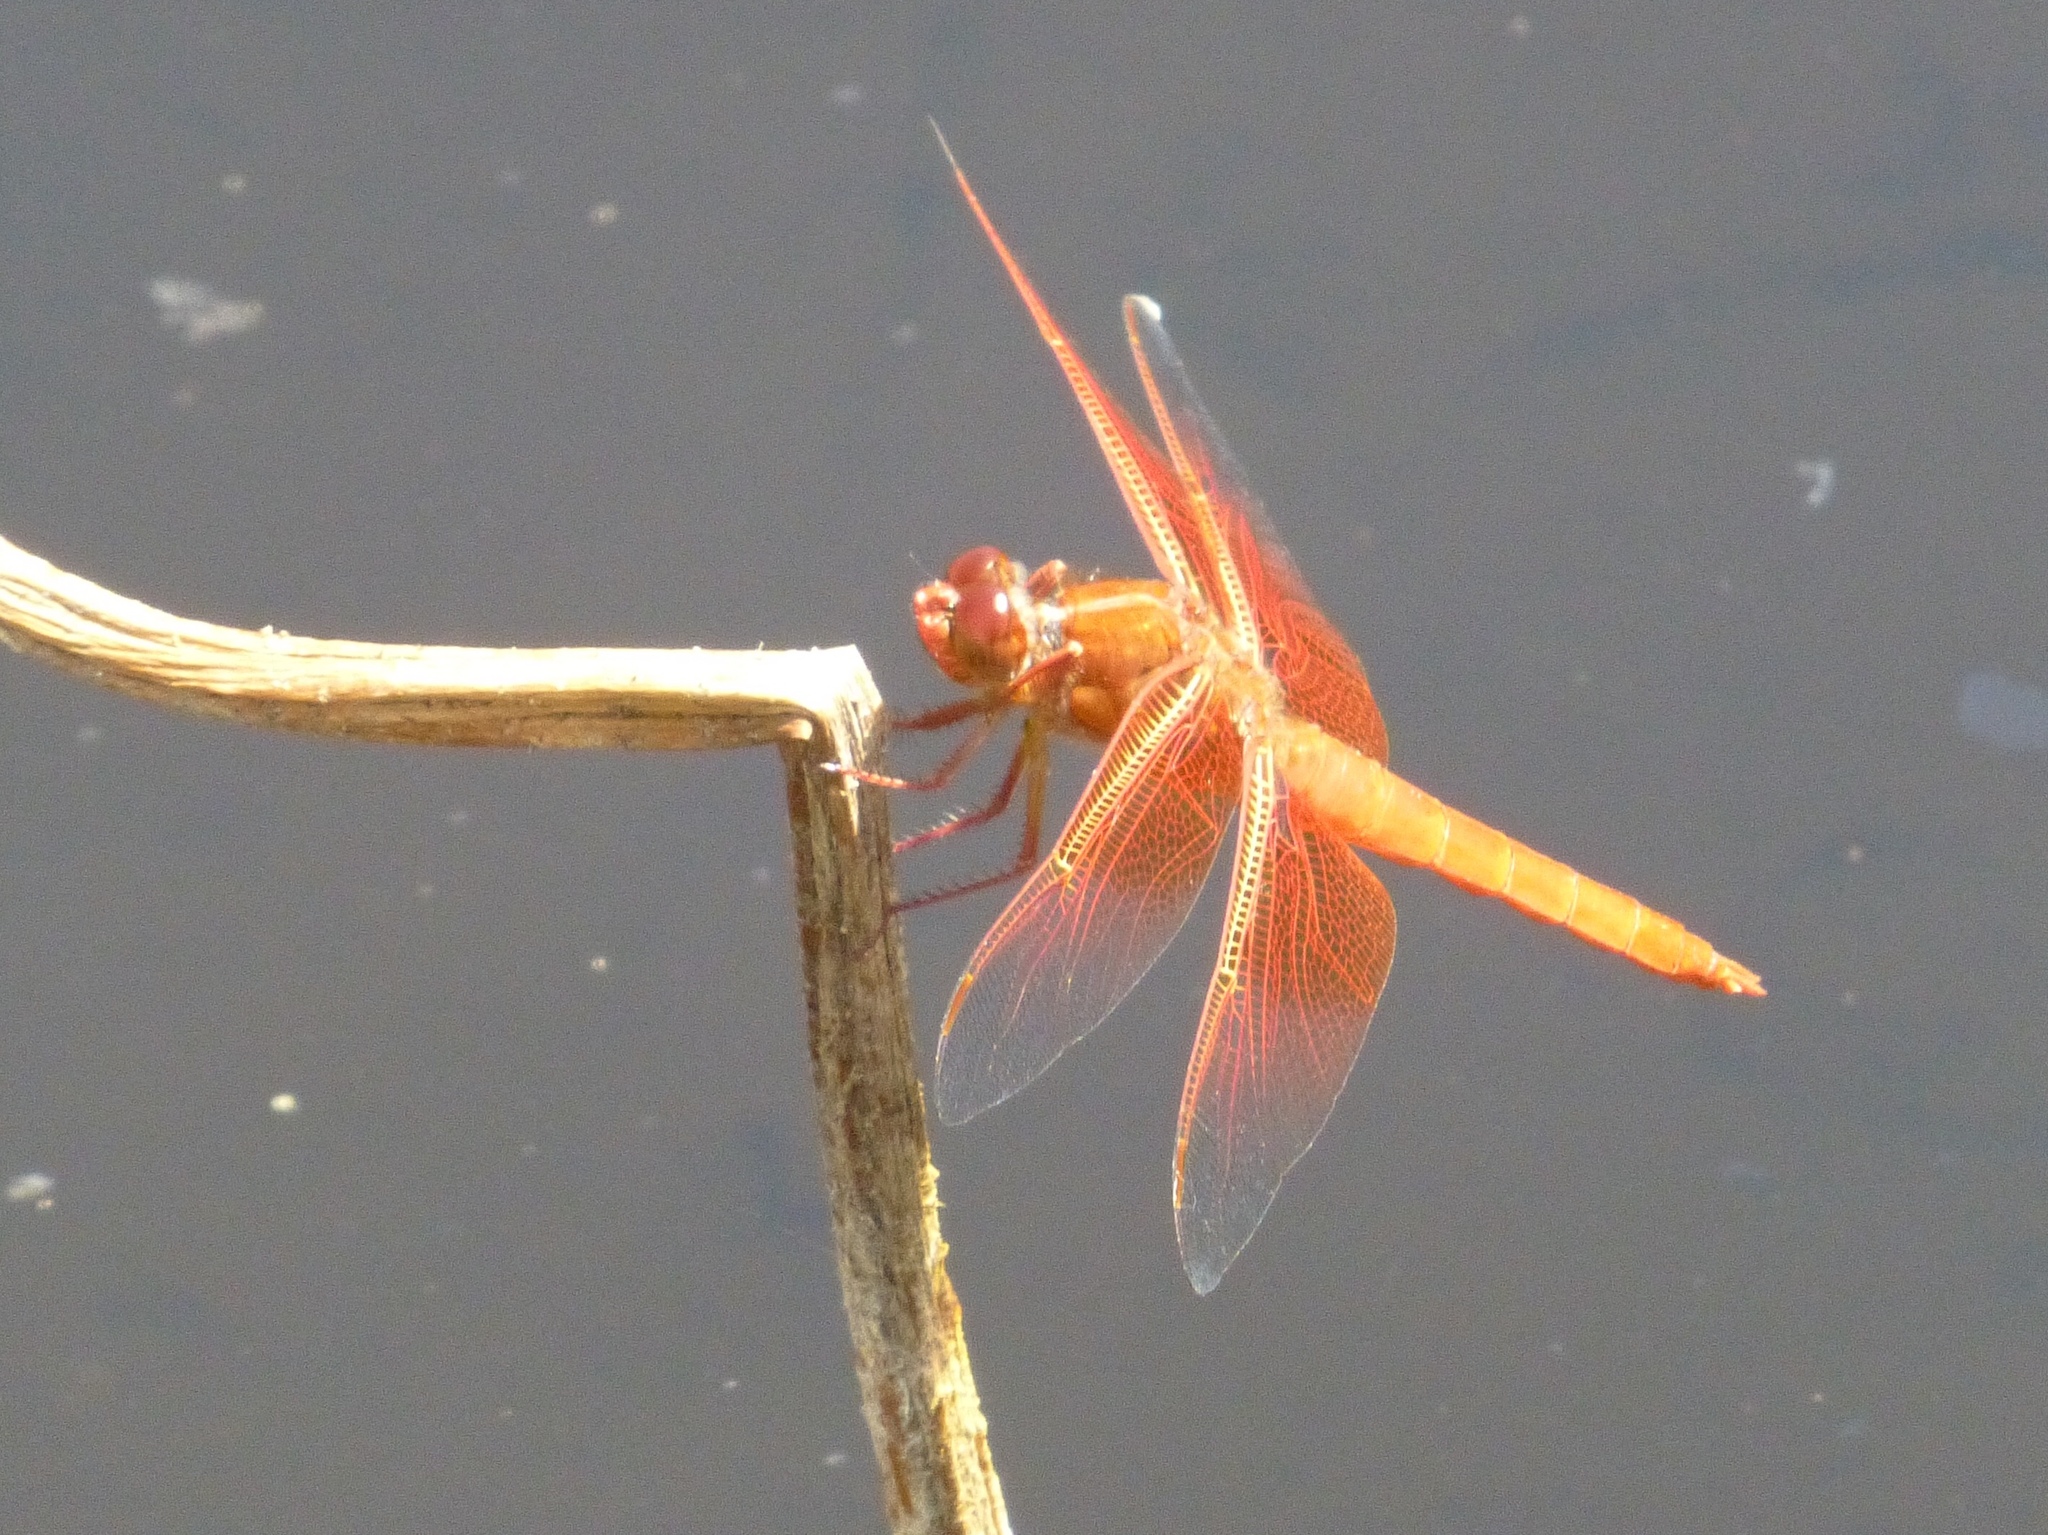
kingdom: Animalia
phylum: Arthropoda
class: Insecta
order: Odonata
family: Libellulidae
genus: Libellula
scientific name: Libellula saturata
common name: Flame skimmer
